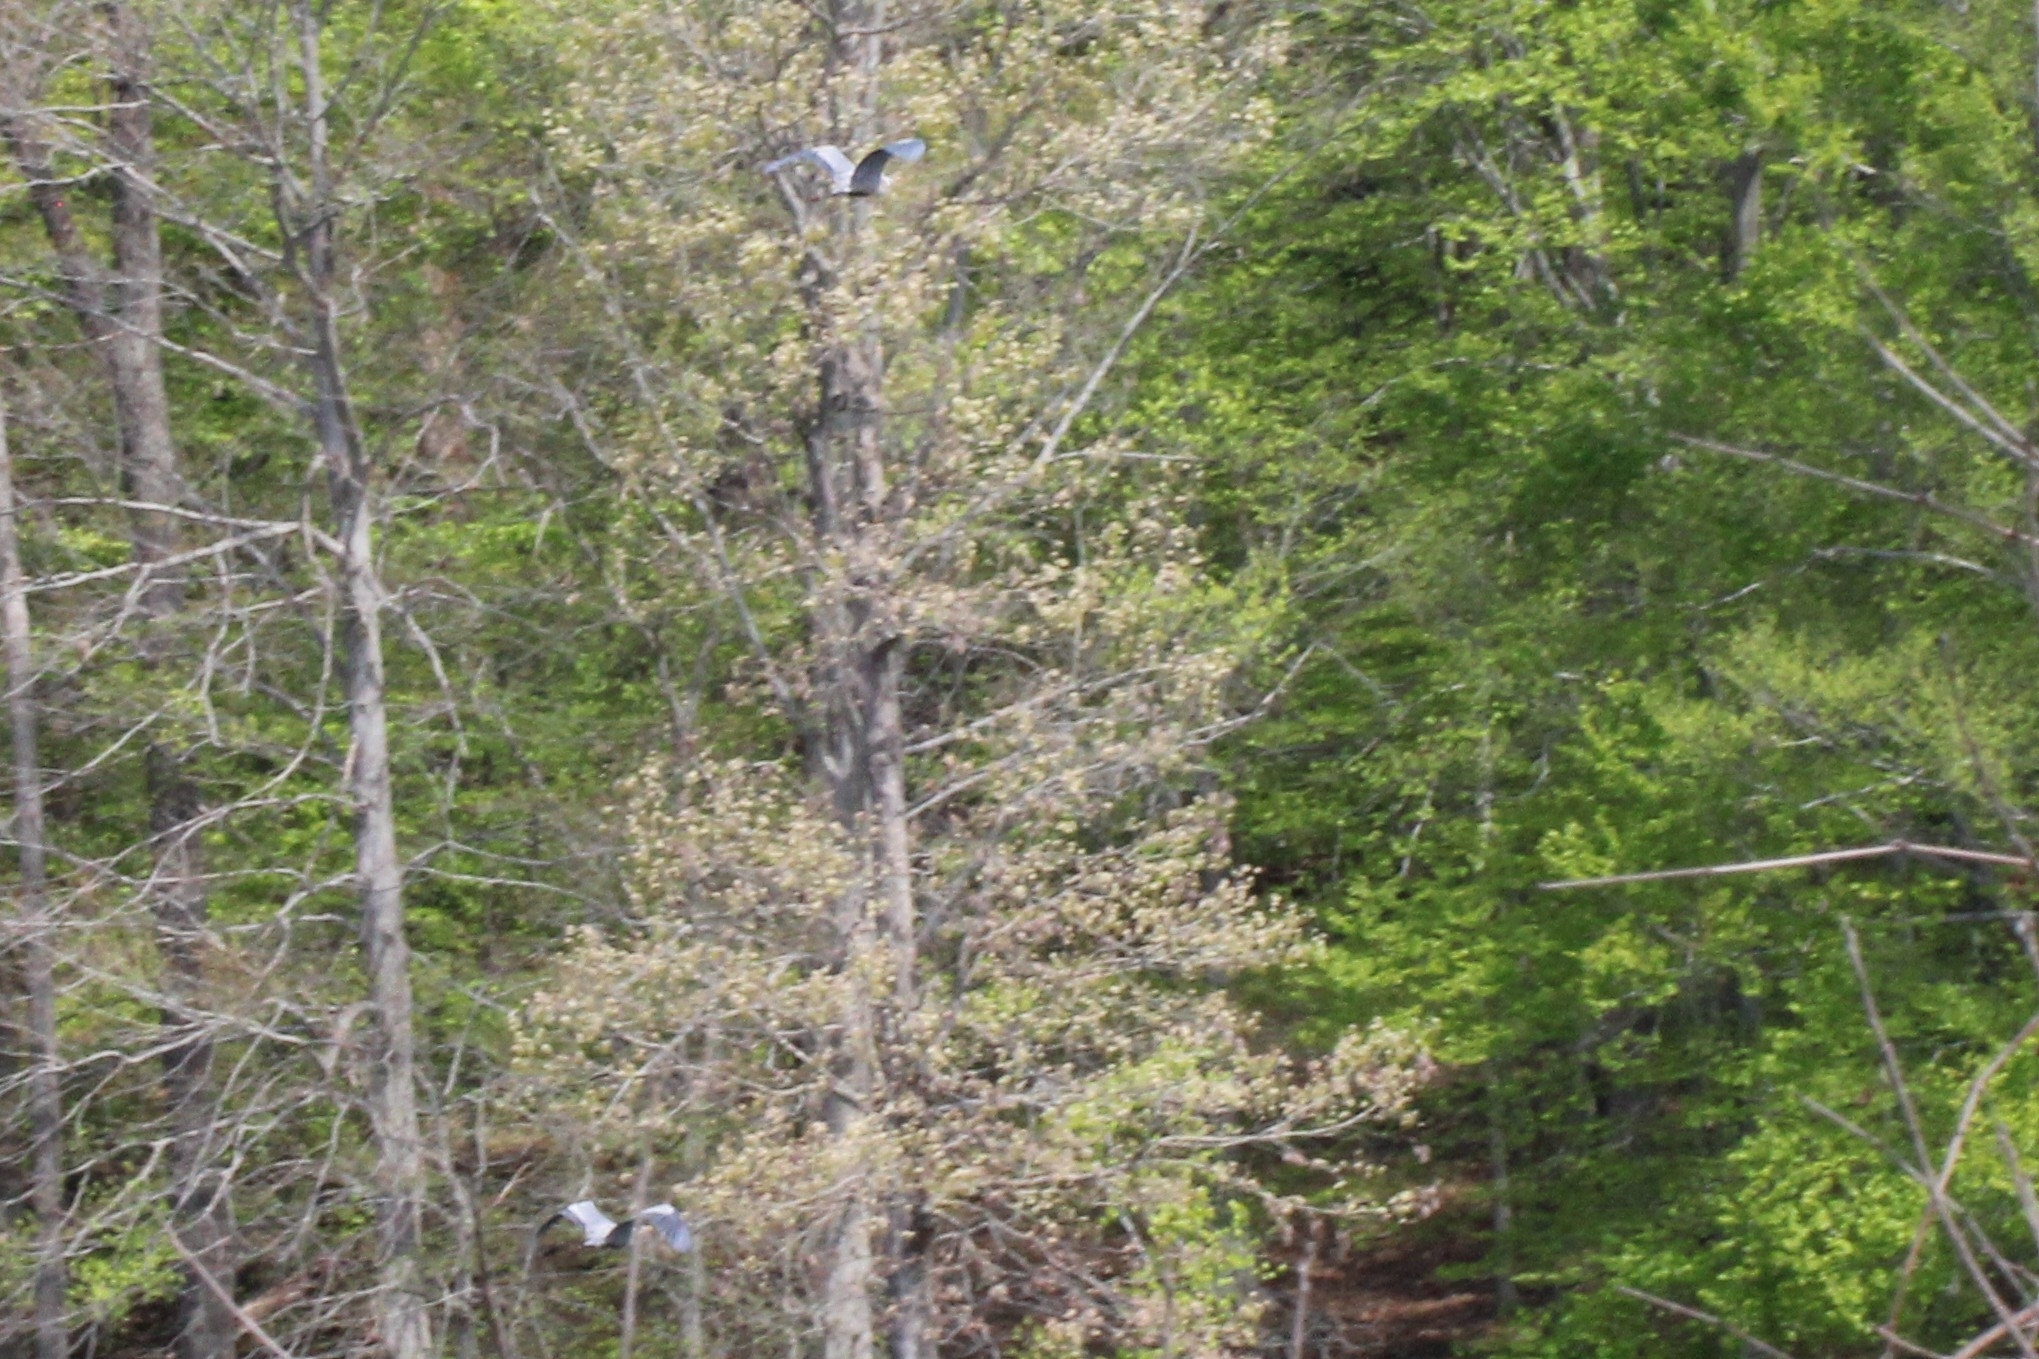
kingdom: Animalia
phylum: Chordata
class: Aves
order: Pelecaniformes
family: Ardeidae
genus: Ardea
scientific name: Ardea herodias
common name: Great blue heron
